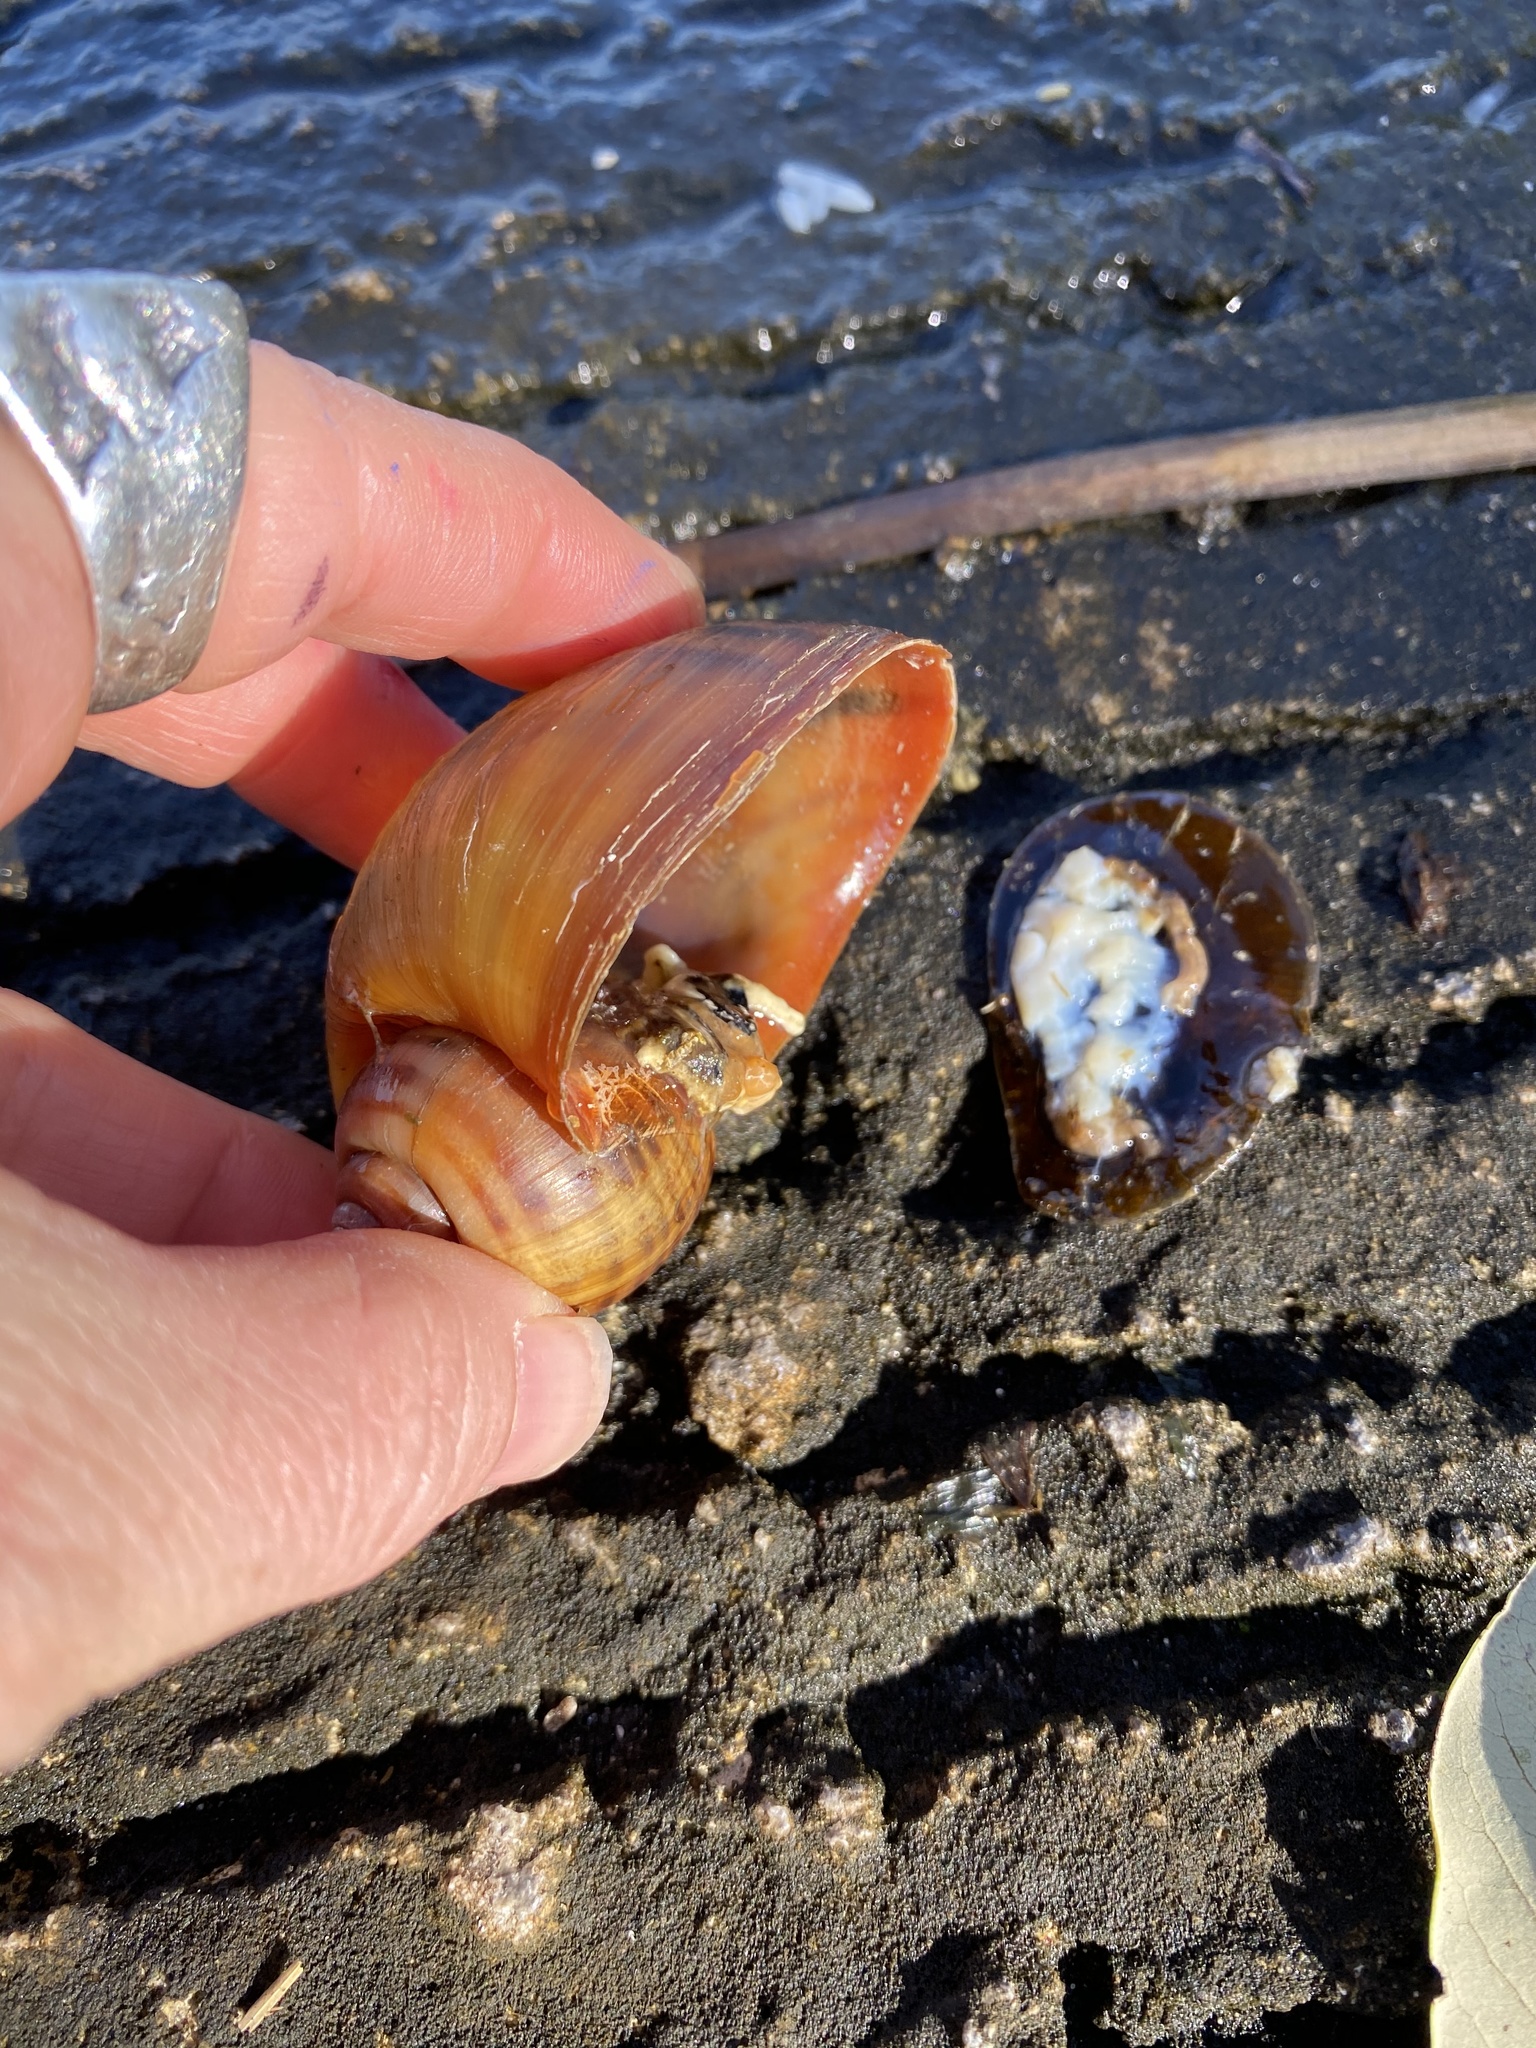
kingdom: Animalia
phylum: Mollusca
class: Gastropoda
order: Architaenioglossa
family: Ampullariidae
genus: Pomacea
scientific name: Pomacea maculata
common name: Giant applesnail
